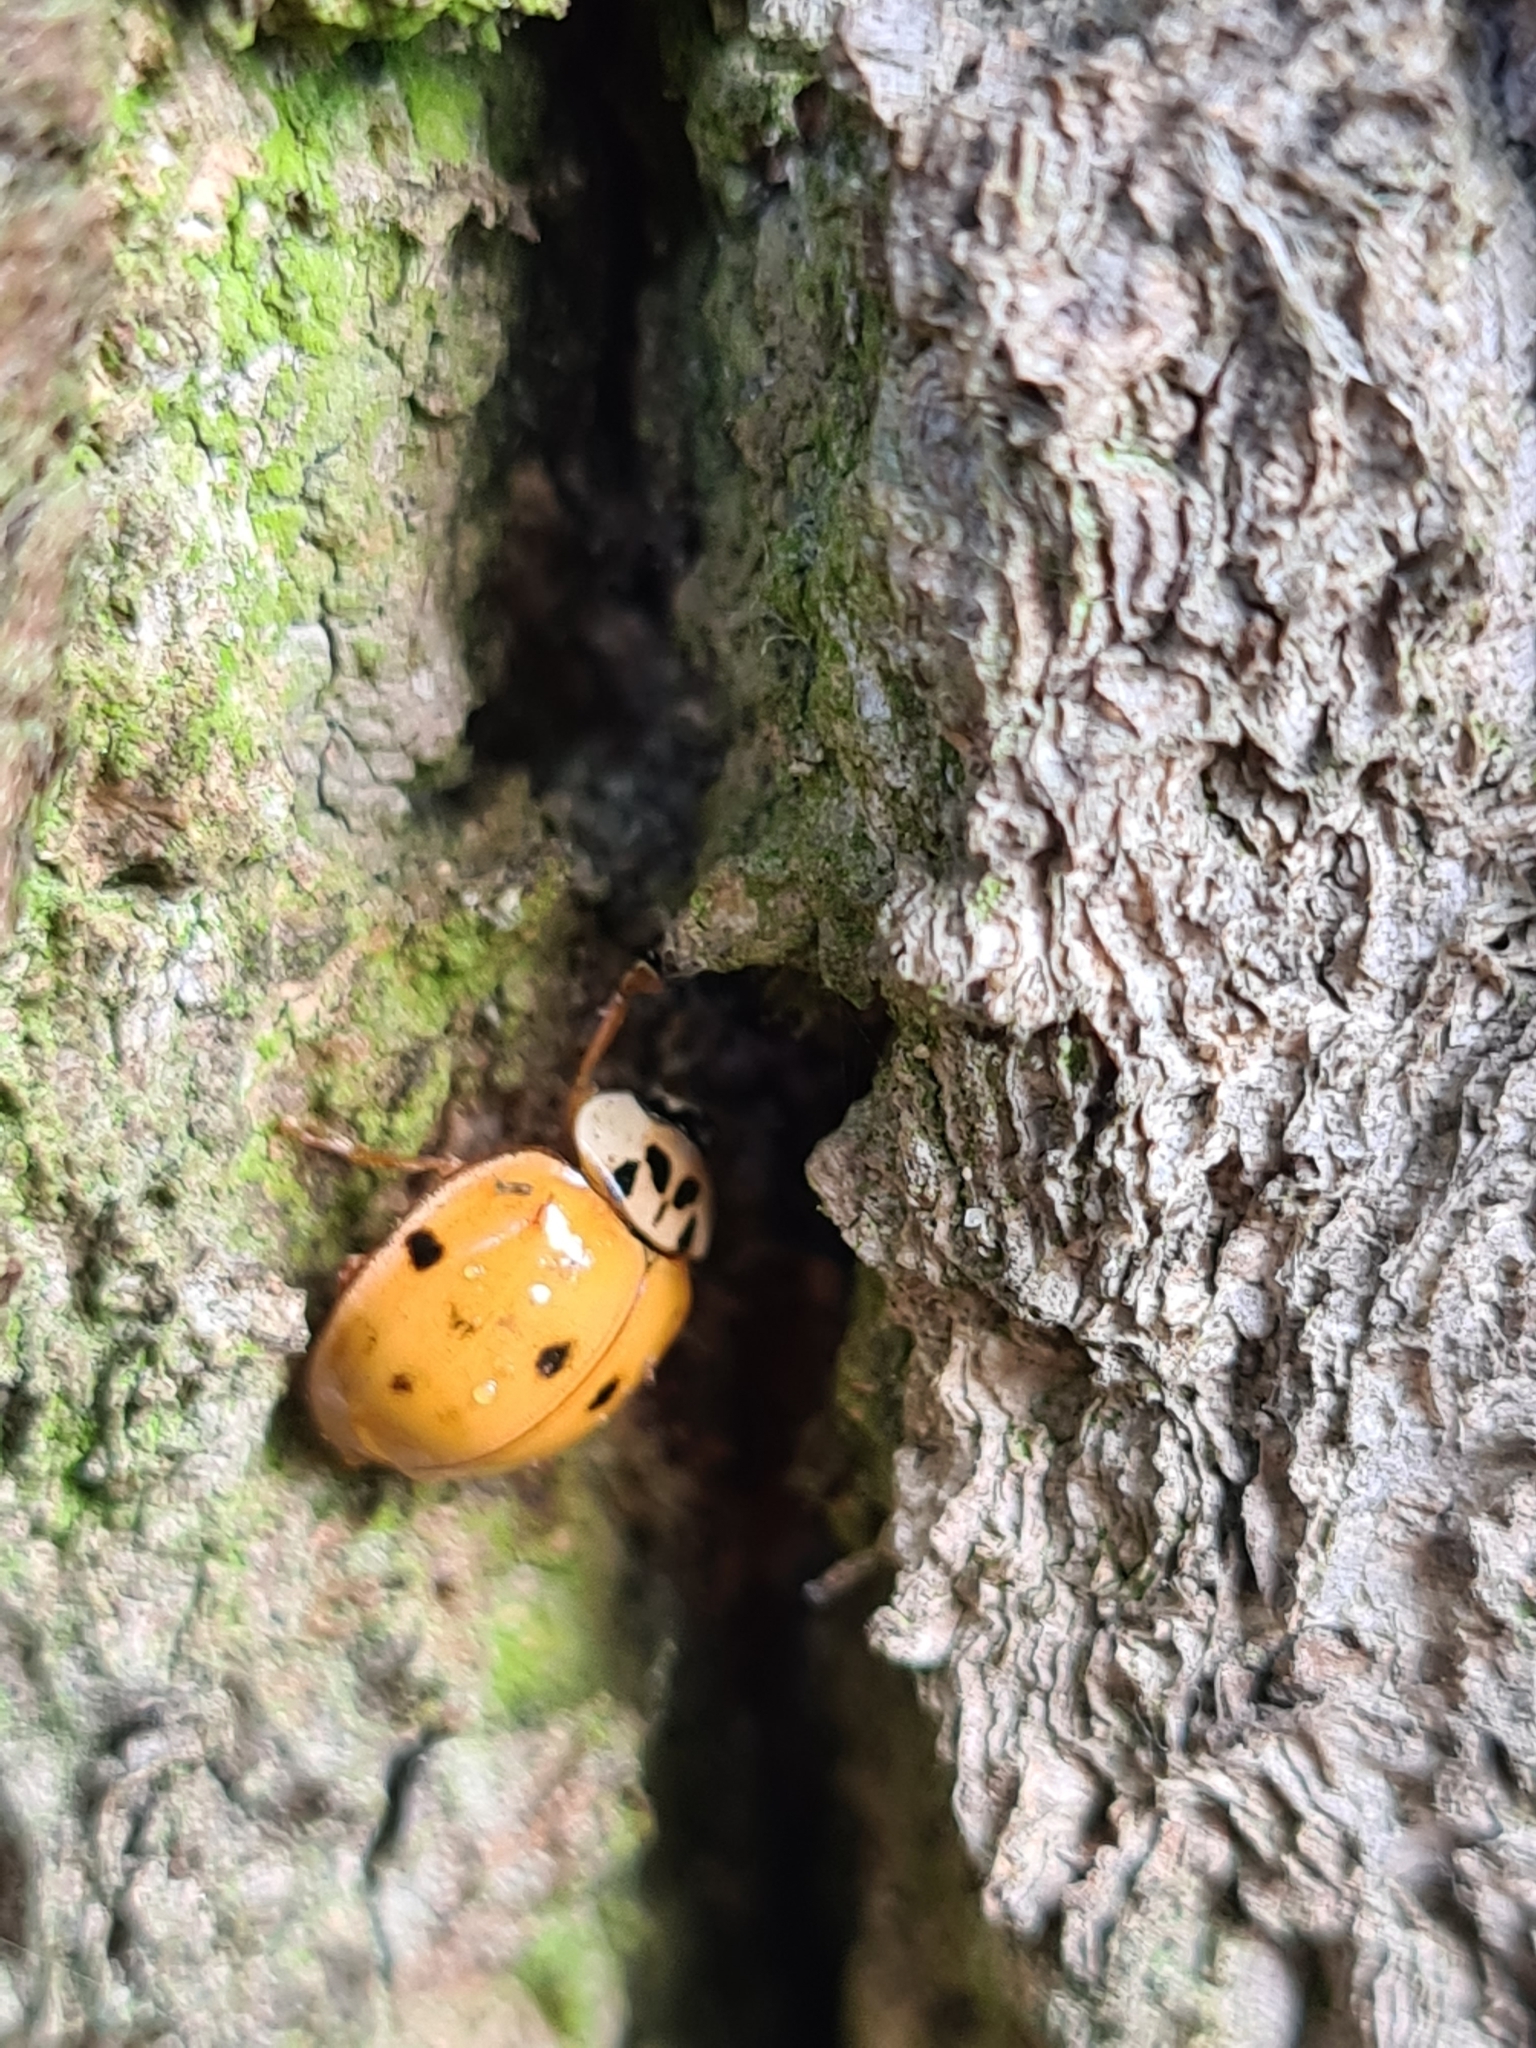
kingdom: Animalia
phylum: Arthropoda
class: Insecta
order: Coleoptera
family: Coccinellidae
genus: Harmonia
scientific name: Harmonia axyridis
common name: Harlequin ladybird
